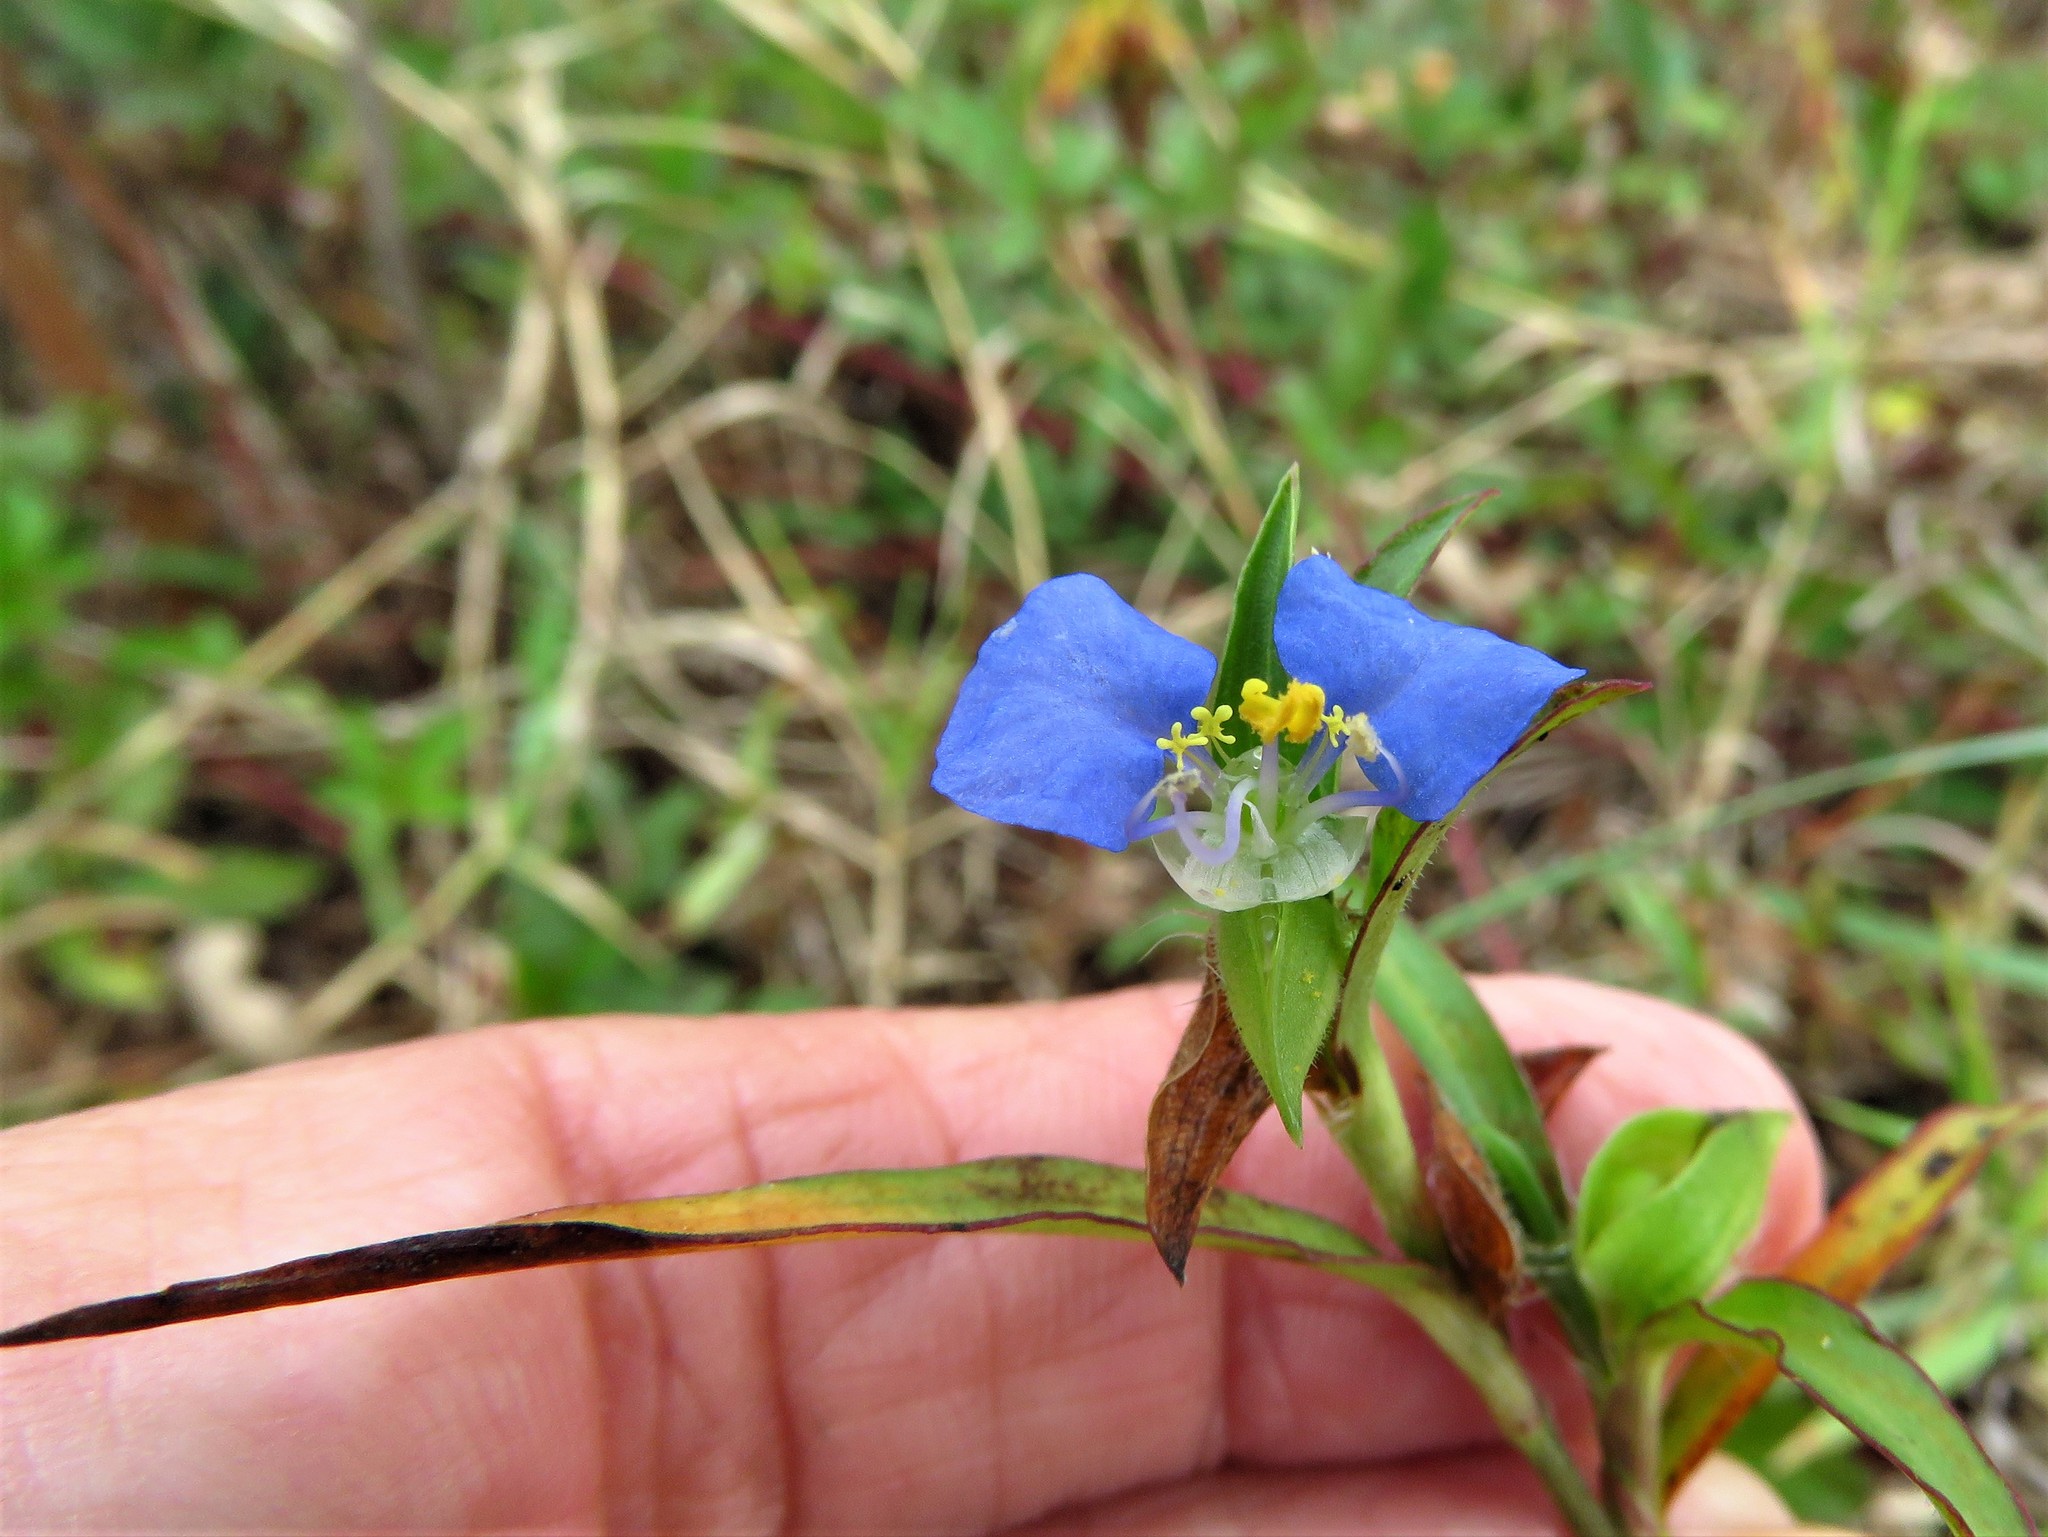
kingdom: Plantae
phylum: Tracheophyta
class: Liliopsida
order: Commelinales
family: Commelinaceae
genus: Commelina
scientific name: Commelina erecta
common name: Blousel blommetjie
